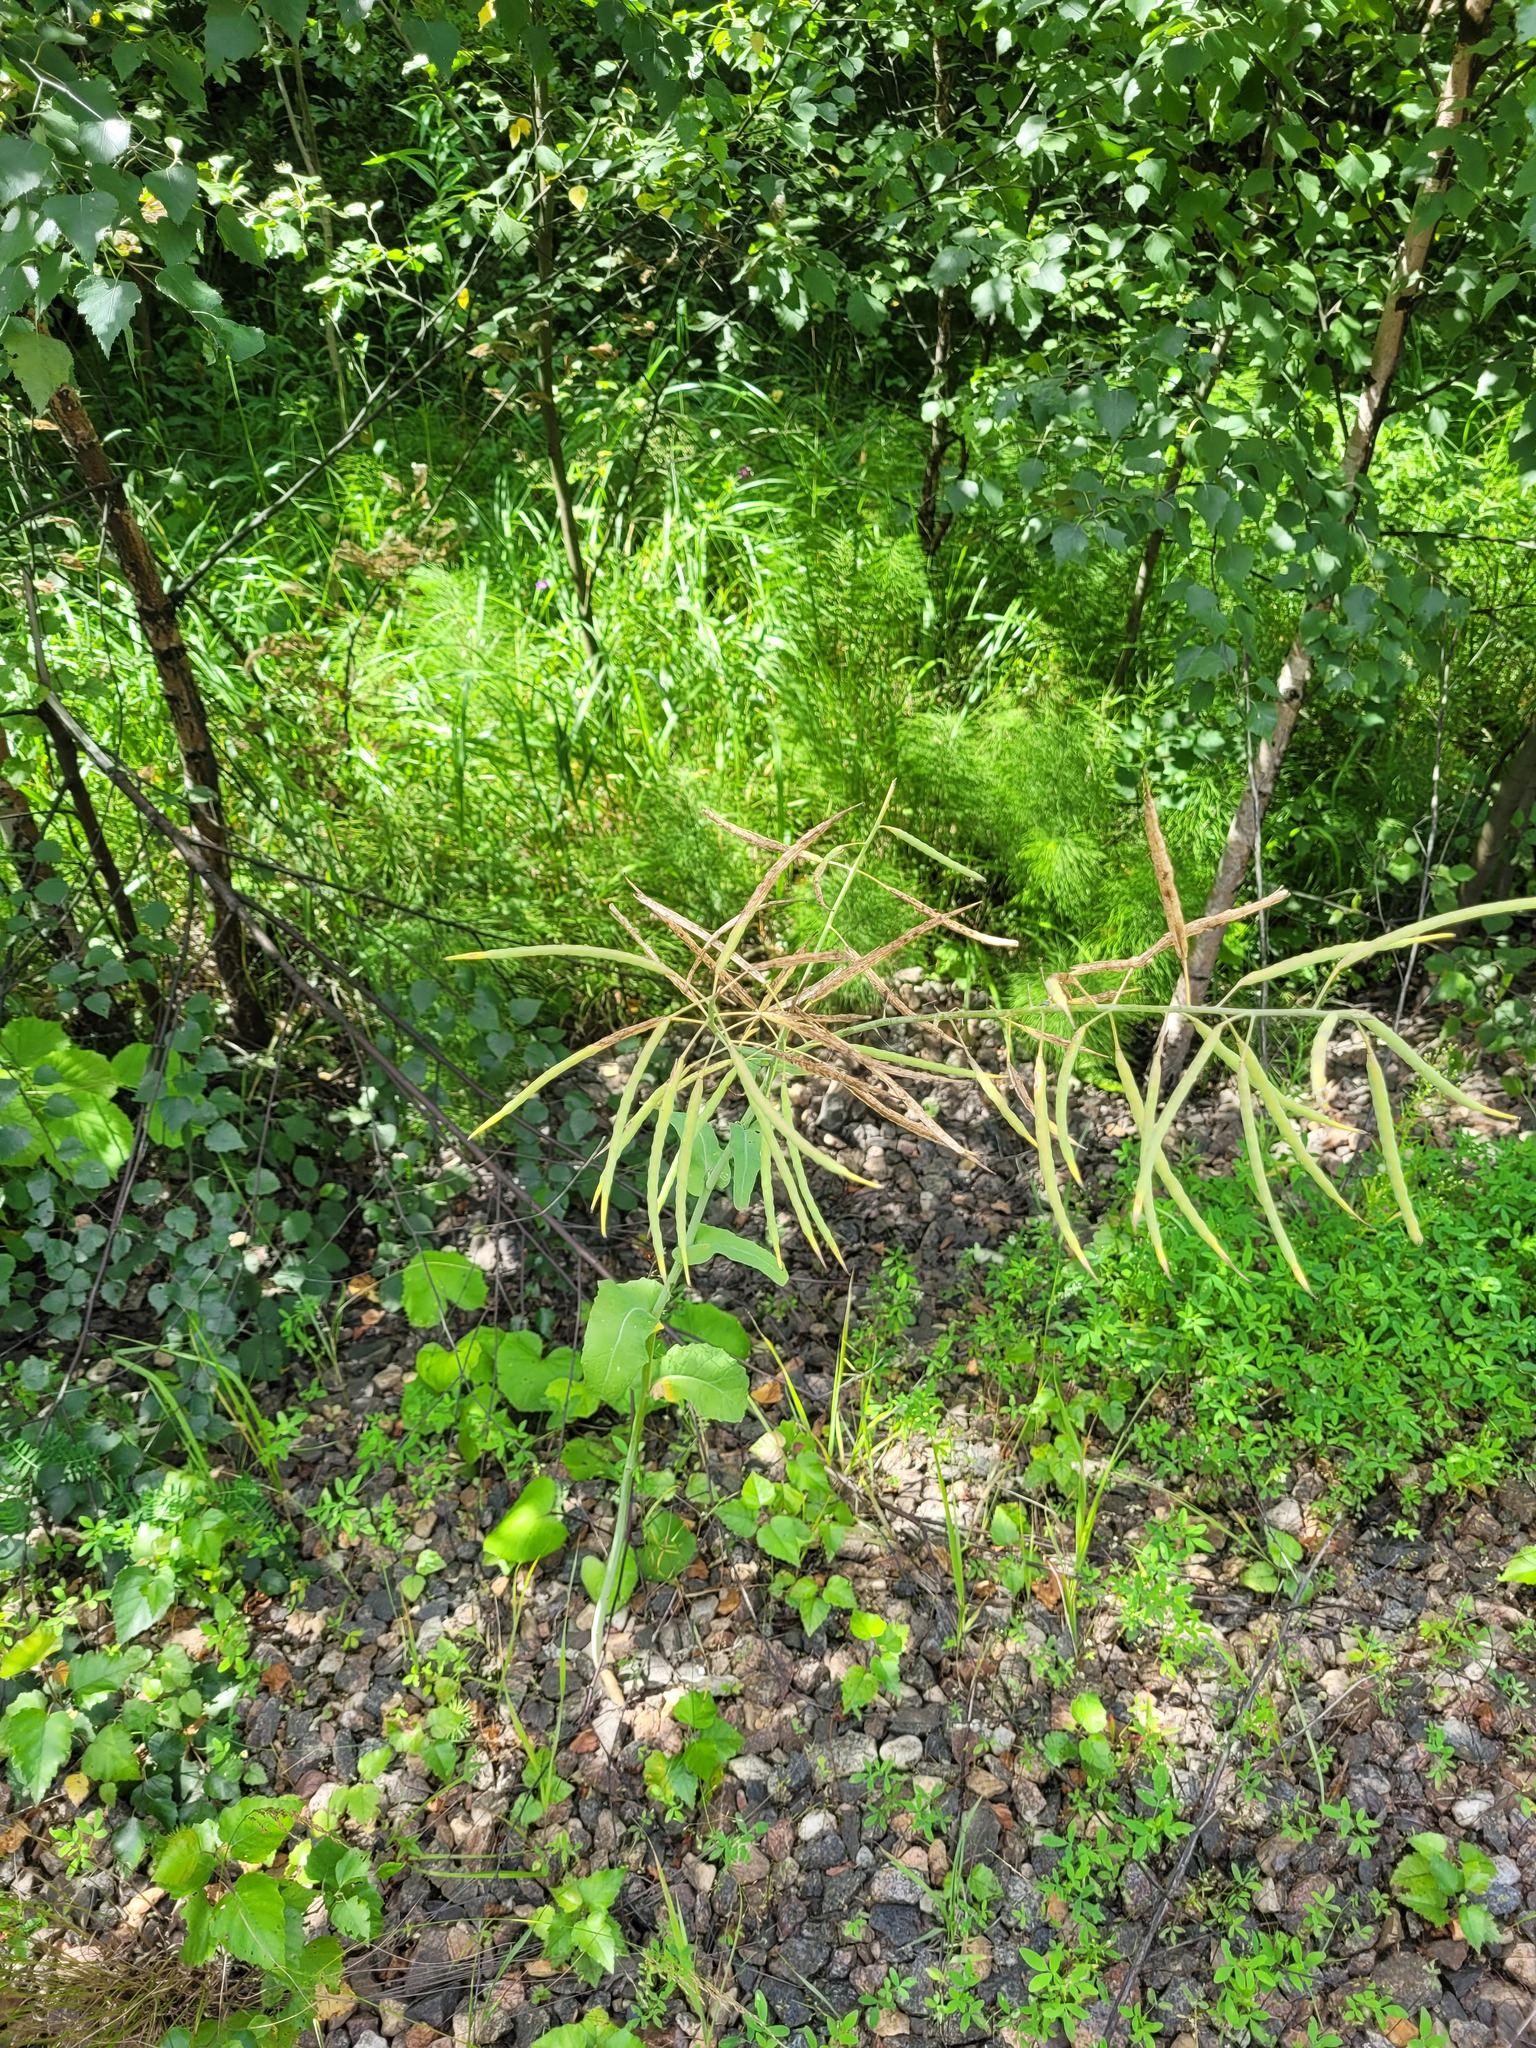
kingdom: Plantae
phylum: Tracheophyta
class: Magnoliopsida
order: Brassicales
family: Brassicaceae
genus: Brassica
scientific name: Brassica napus
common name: Rape
